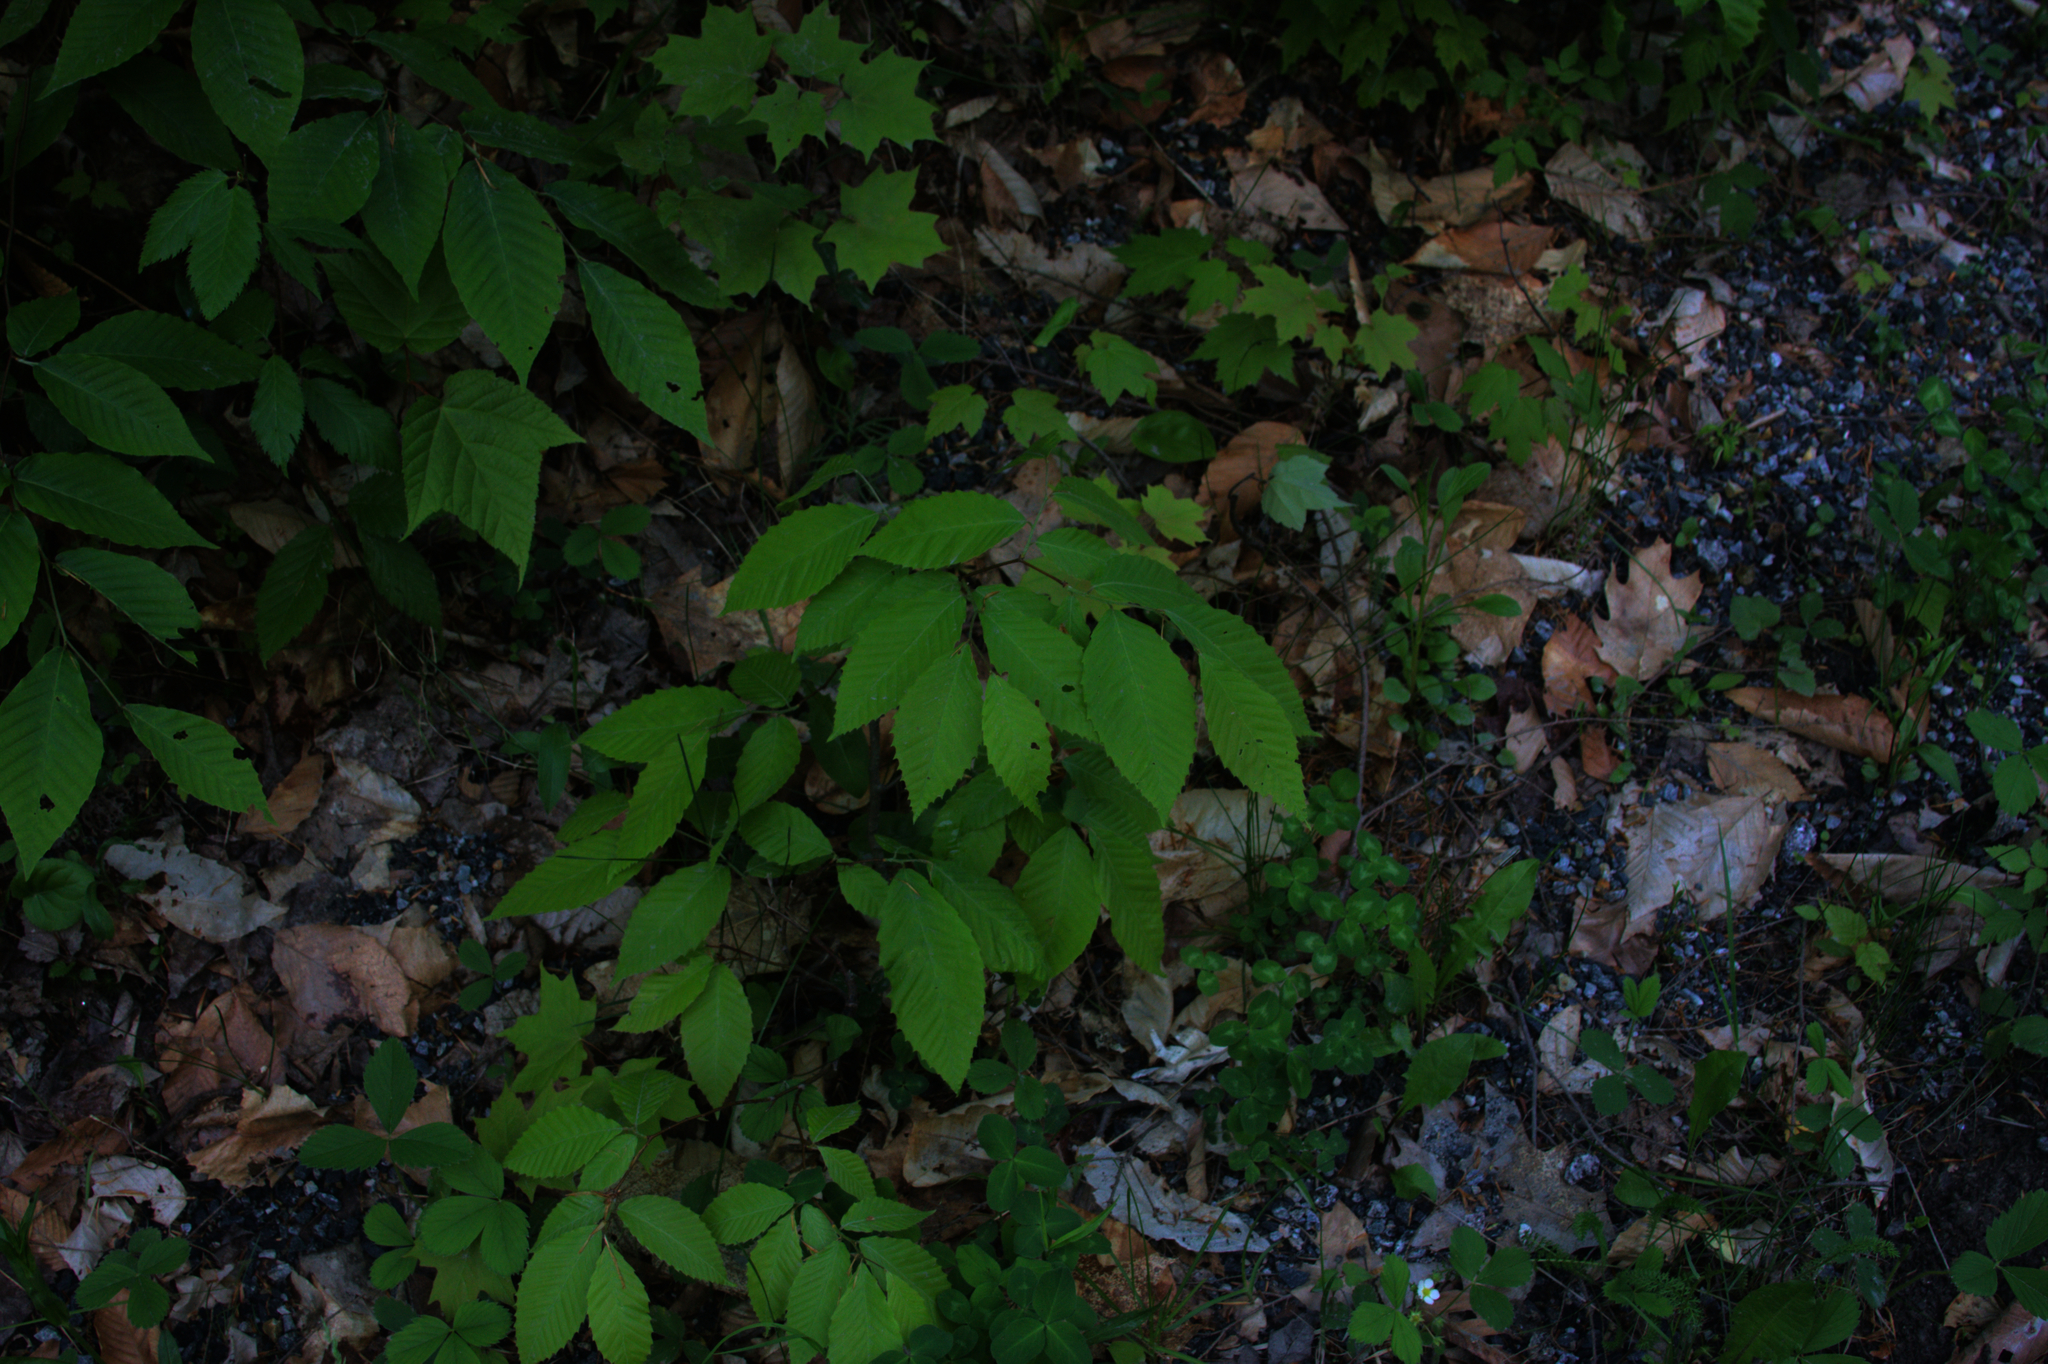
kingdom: Plantae
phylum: Tracheophyta
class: Magnoliopsida
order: Fagales
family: Fagaceae
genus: Fagus
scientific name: Fagus grandifolia
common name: American beech
